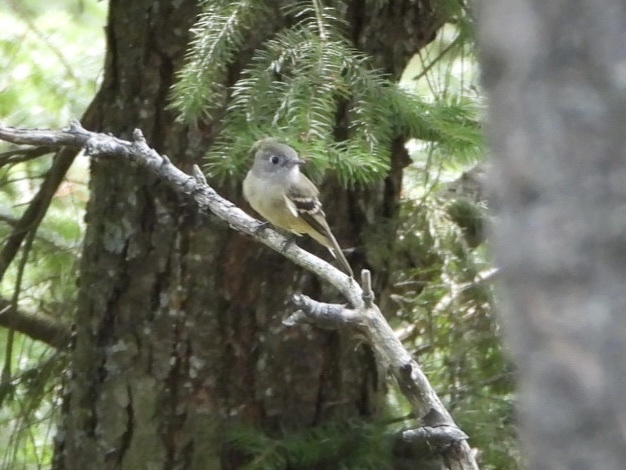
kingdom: Animalia
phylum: Chordata
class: Aves
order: Passeriformes
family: Tyrannidae
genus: Empidonax
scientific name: Empidonax hammondii
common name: Hammond's flycatcher
